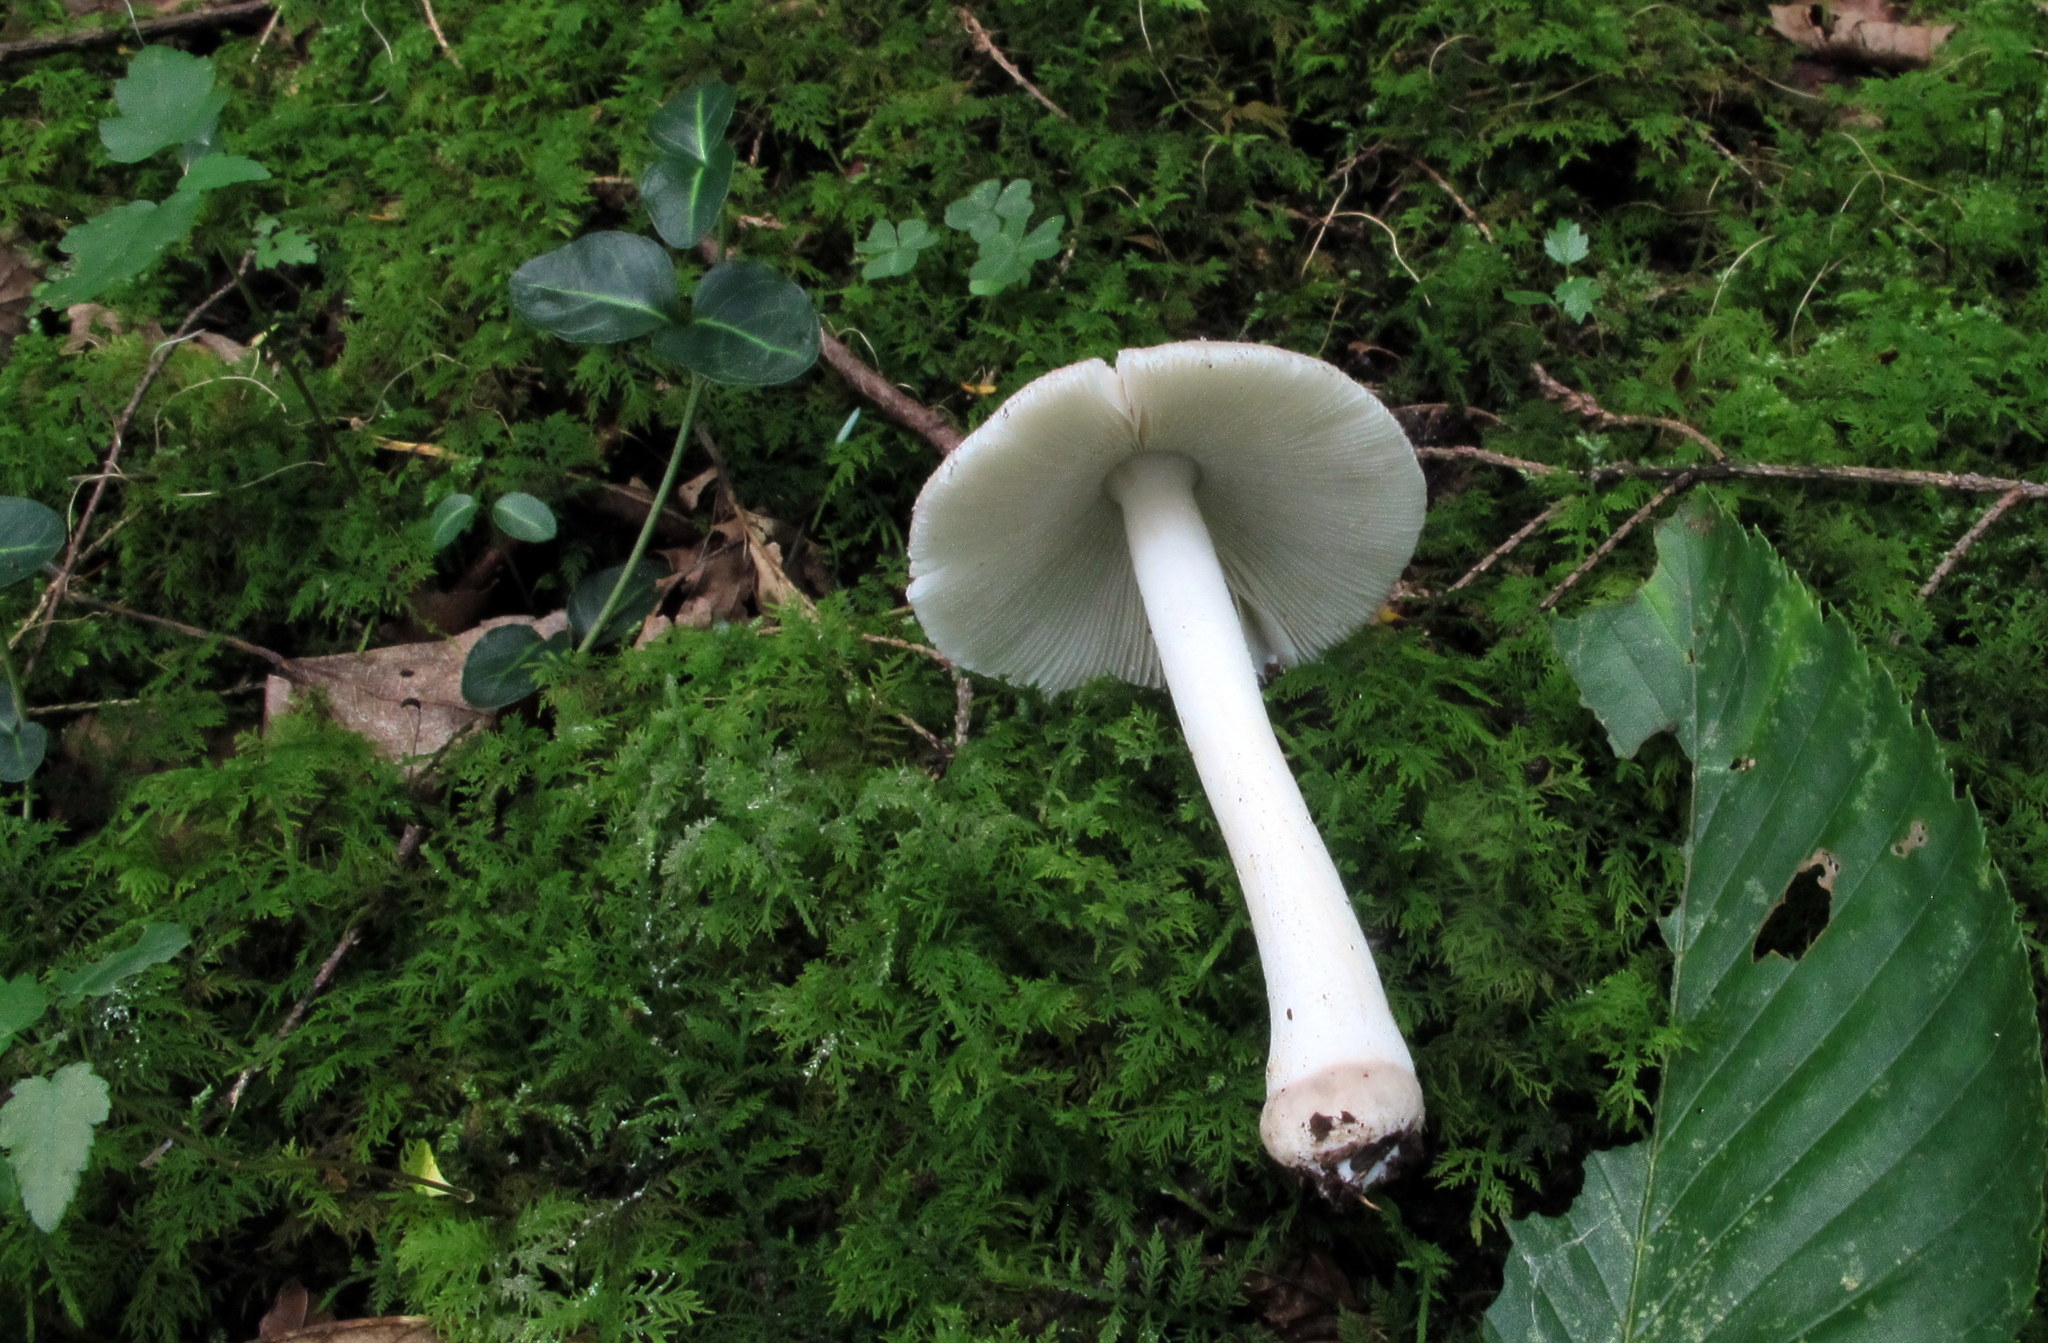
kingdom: Fungi
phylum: Basidiomycota
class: Agaricomycetes
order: Agaricales
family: Amanitaceae
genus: Amanita
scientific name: Amanita farinosa
